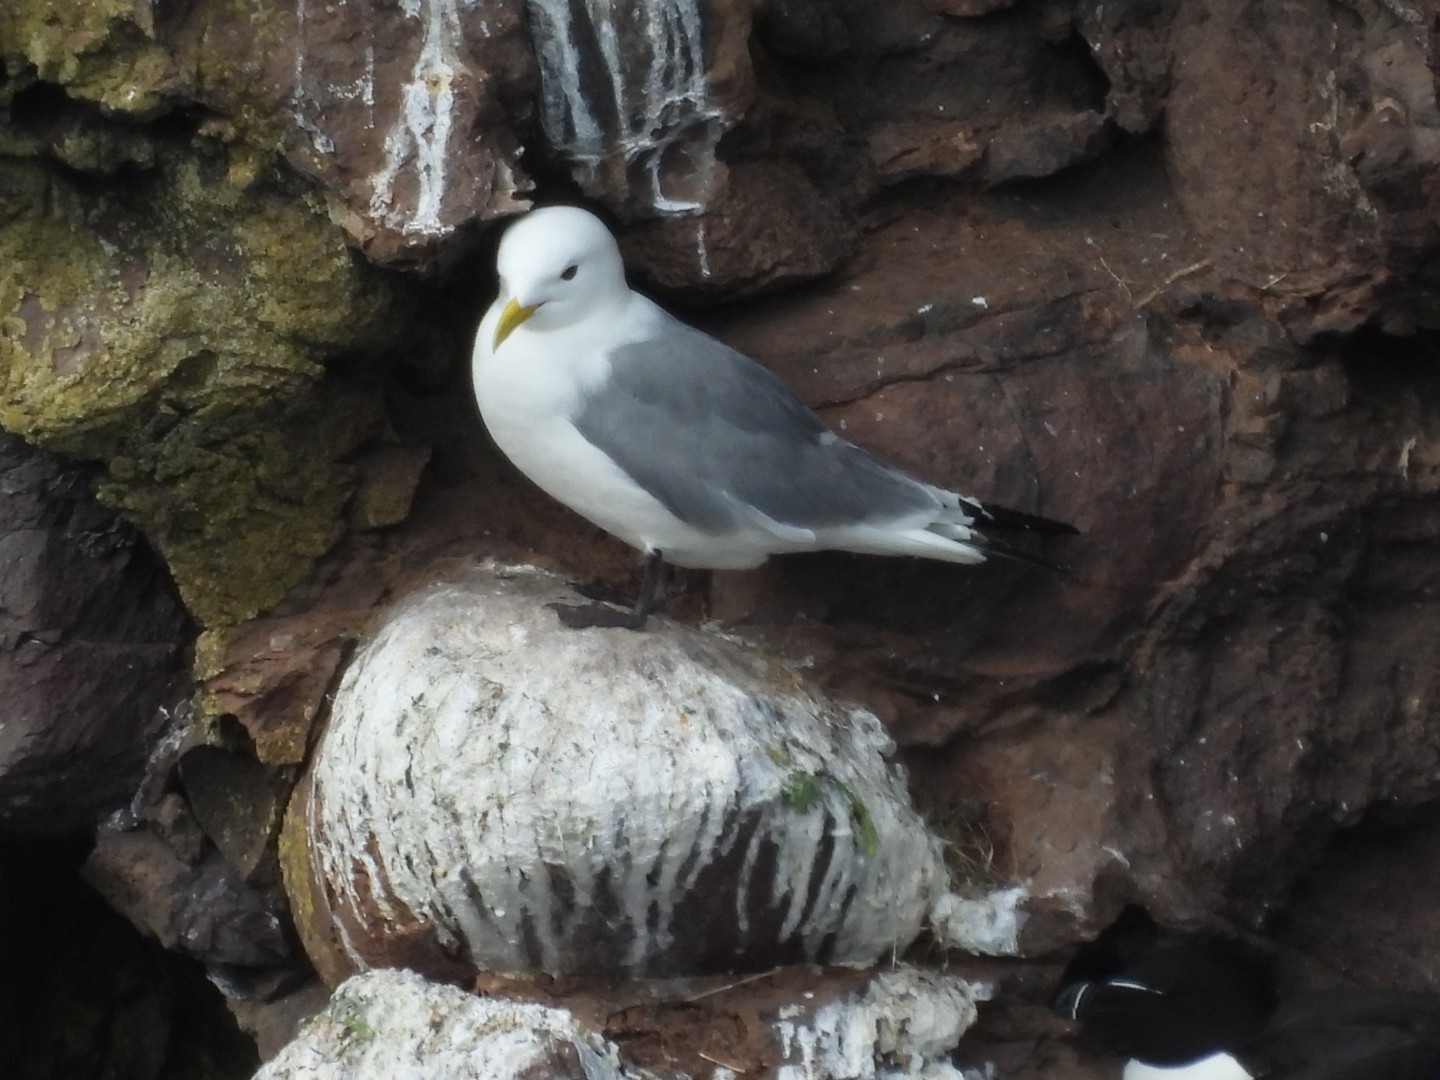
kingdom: Animalia
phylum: Chordata
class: Aves
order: Charadriiformes
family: Laridae
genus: Rissa
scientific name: Rissa tridactyla
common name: Black-legged kittiwake
